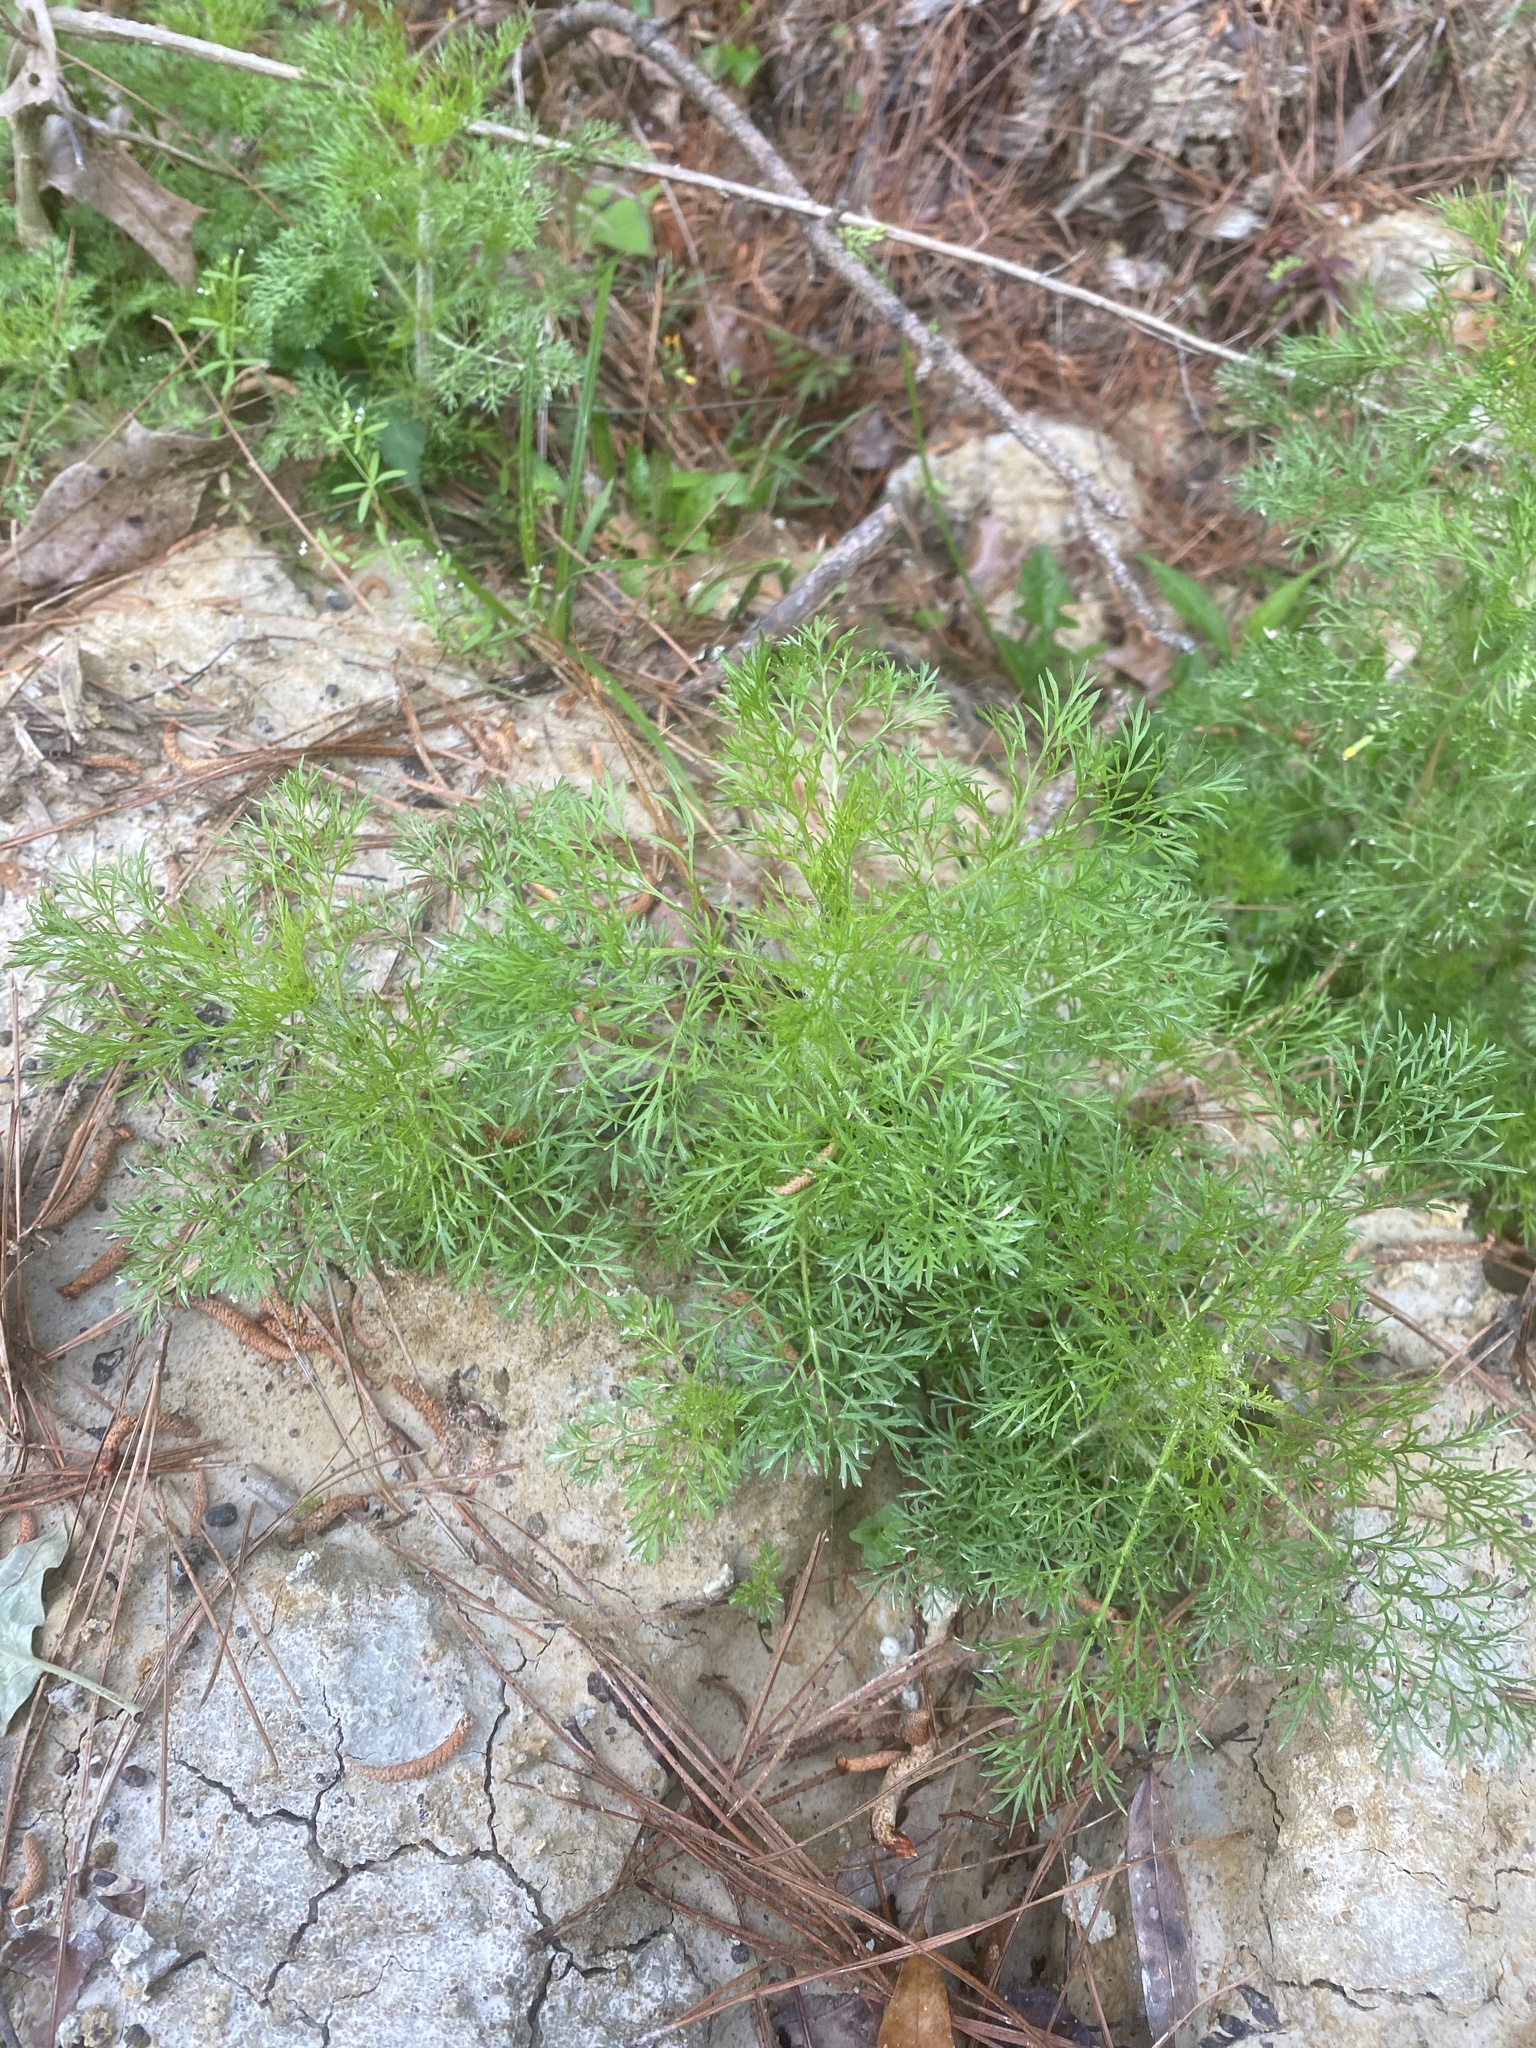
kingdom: Plantae
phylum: Tracheophyta
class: Magnoliopsida
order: Asterales
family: Asteraceae
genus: Eupatorium
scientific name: Eupatorium capillifolium
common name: Dog-fennel
